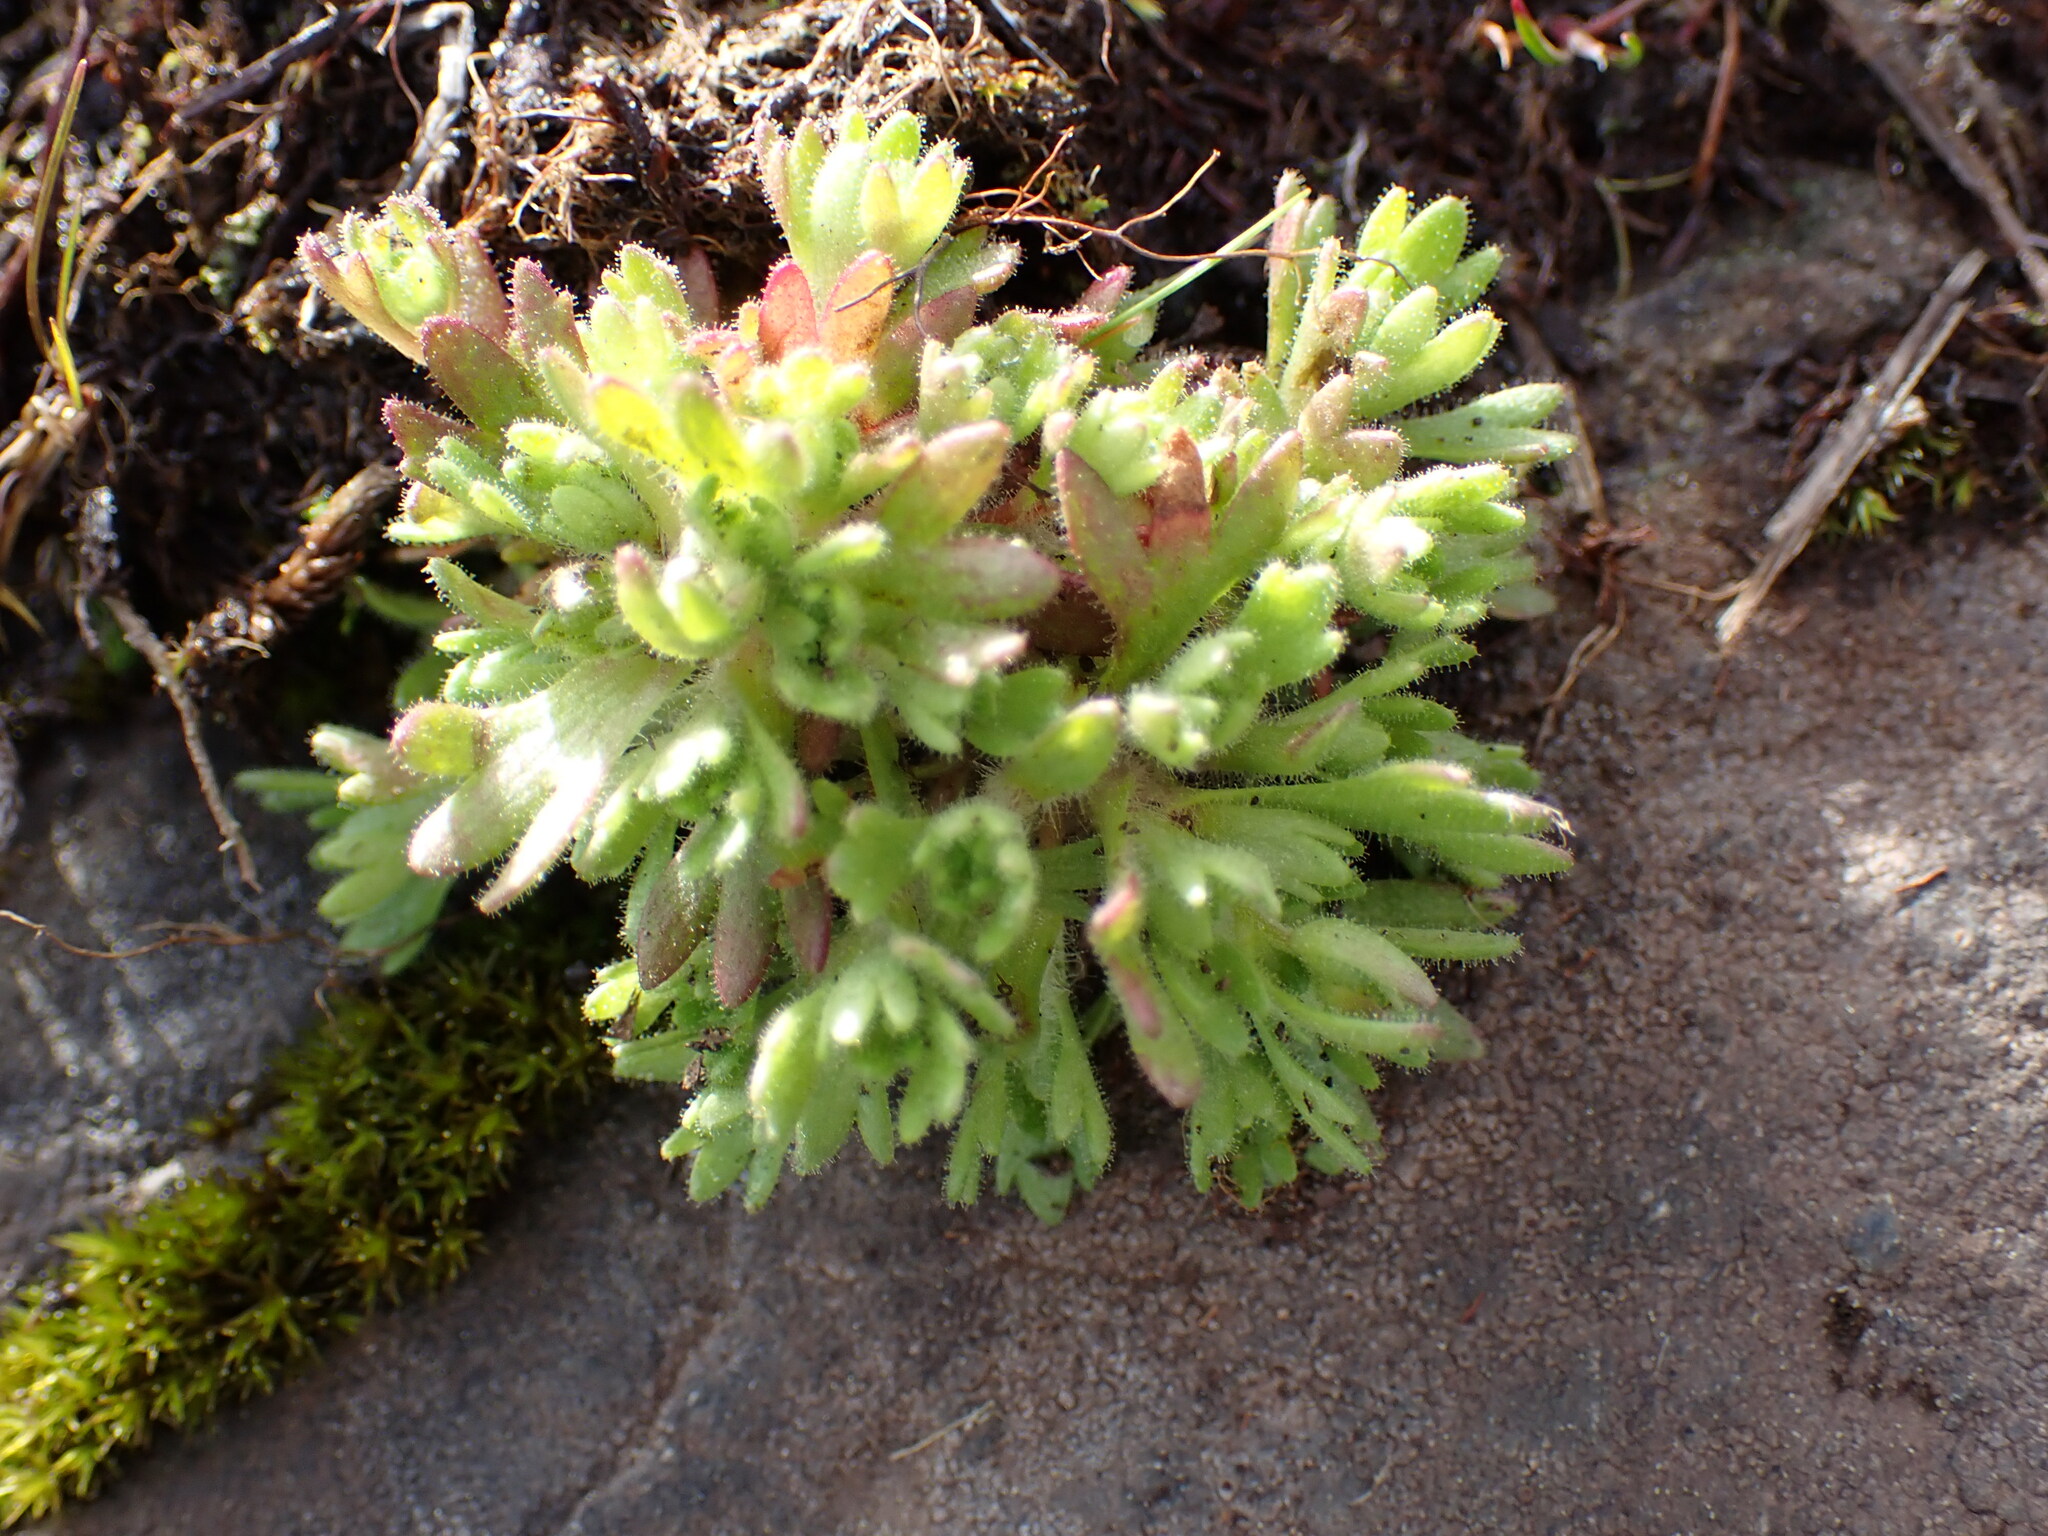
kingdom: Plantae
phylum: Tracheophyta
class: Magnoliopsida
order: Saxifragales
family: Saxifragaceae
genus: Saxifraga
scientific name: Saxifraga cespitosa
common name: Tufted saxifrage
